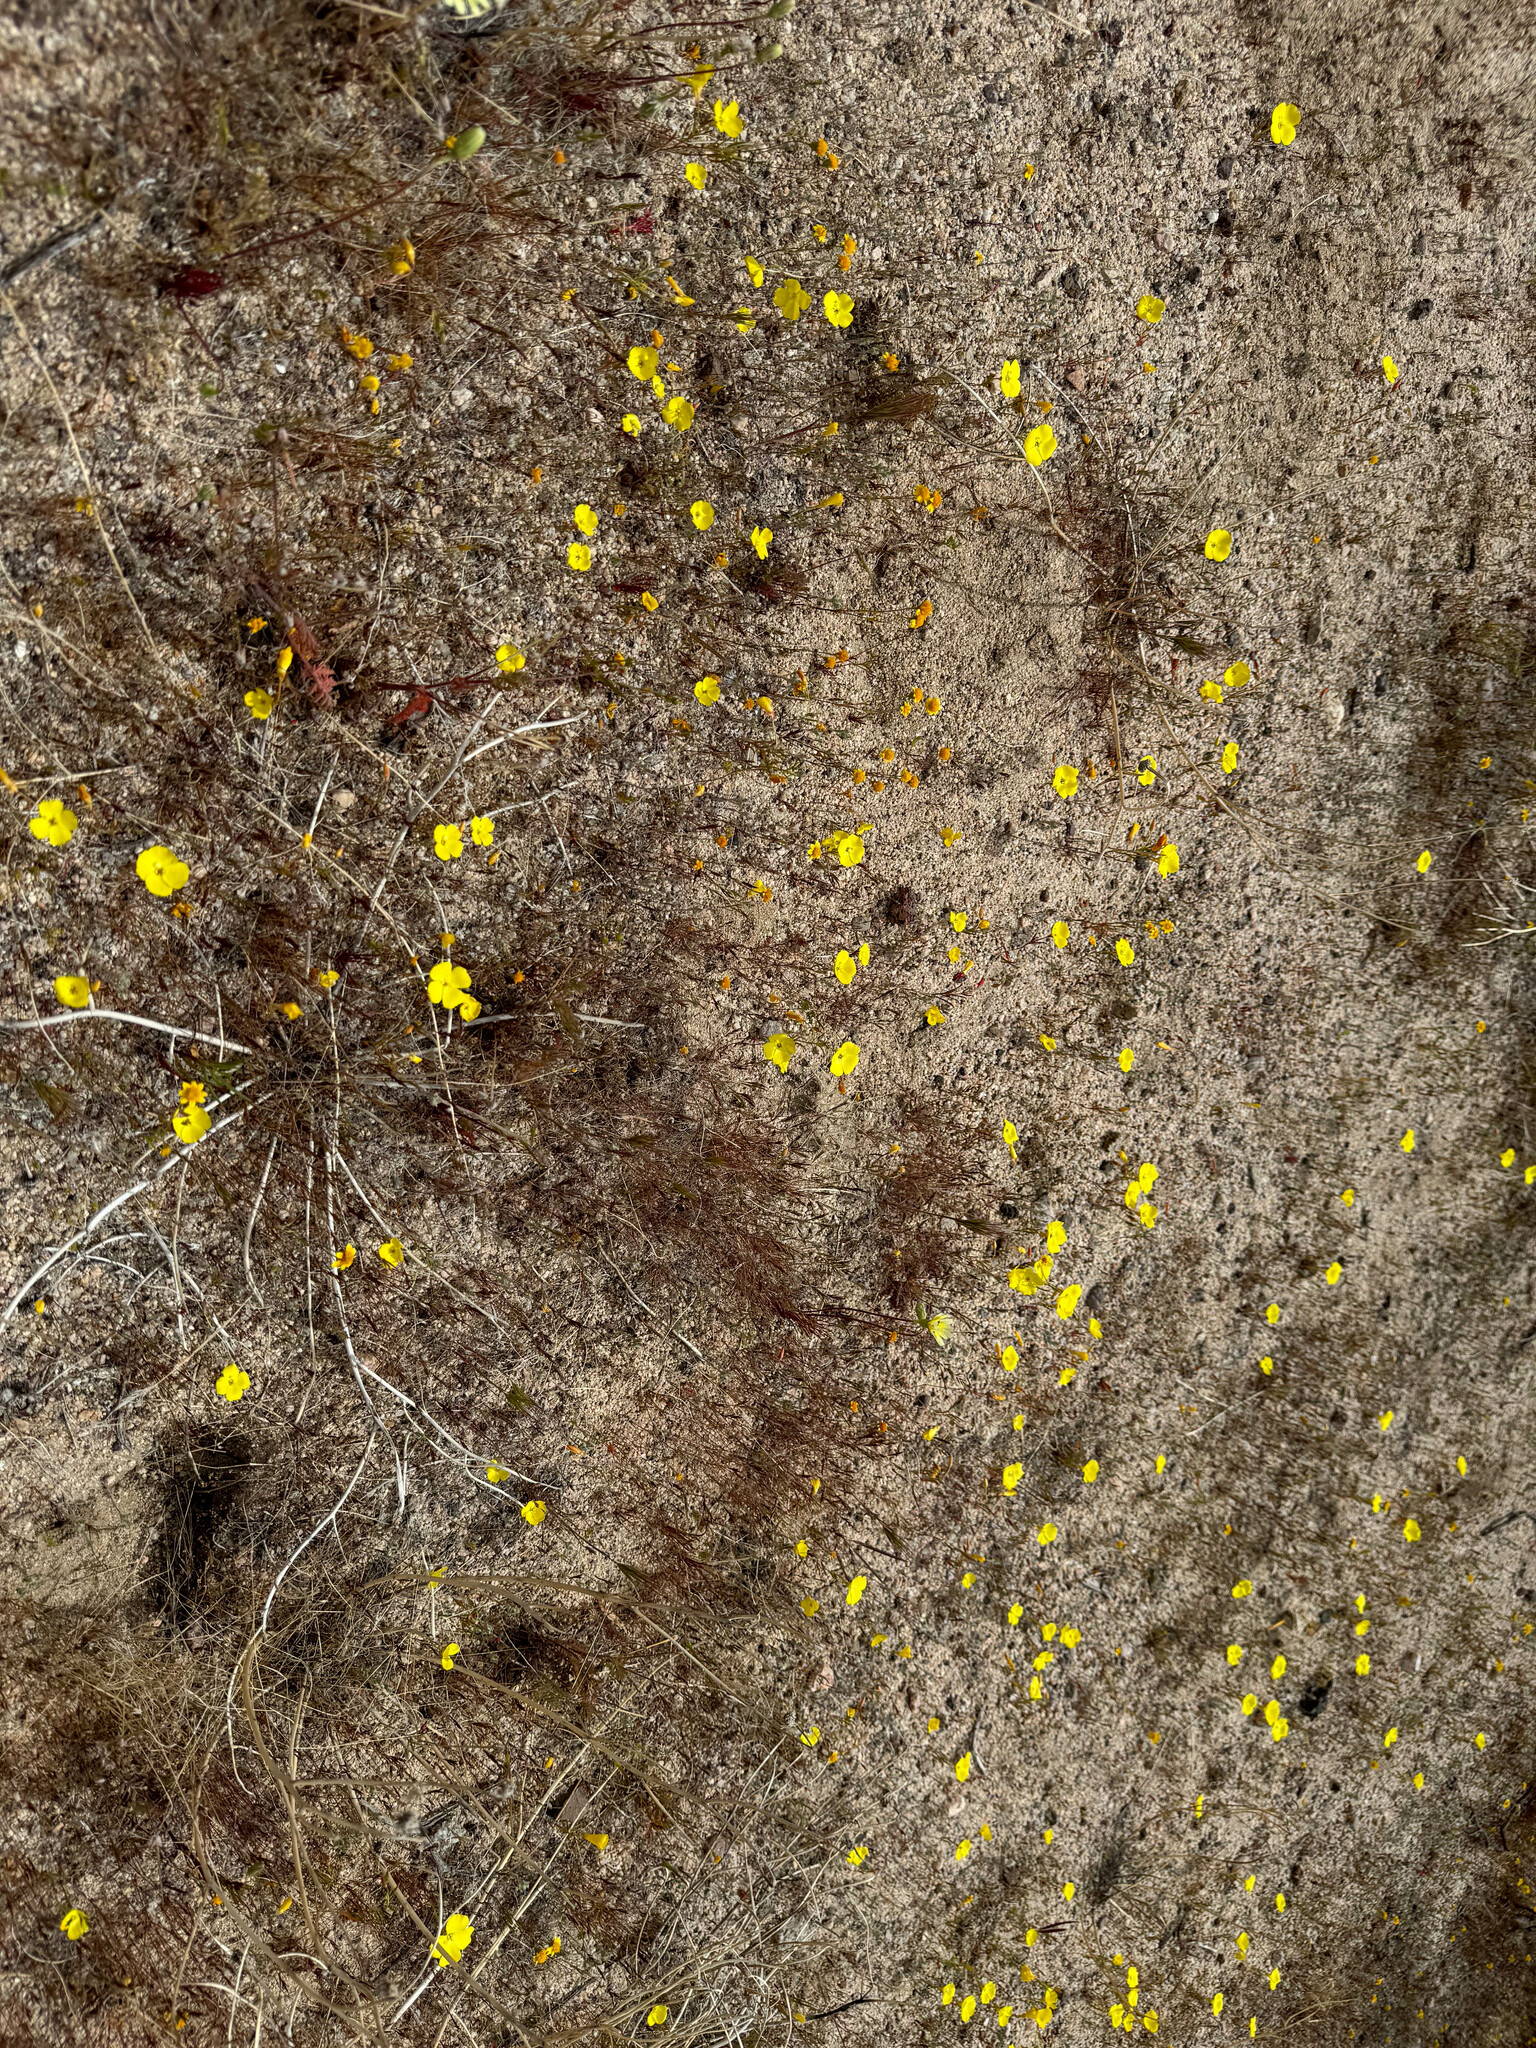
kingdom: Plantae
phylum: Tracheophyta
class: Magnoliopsida
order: Myrtales
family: Onagraceae
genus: Camissonia
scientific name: Camissonia campestris
